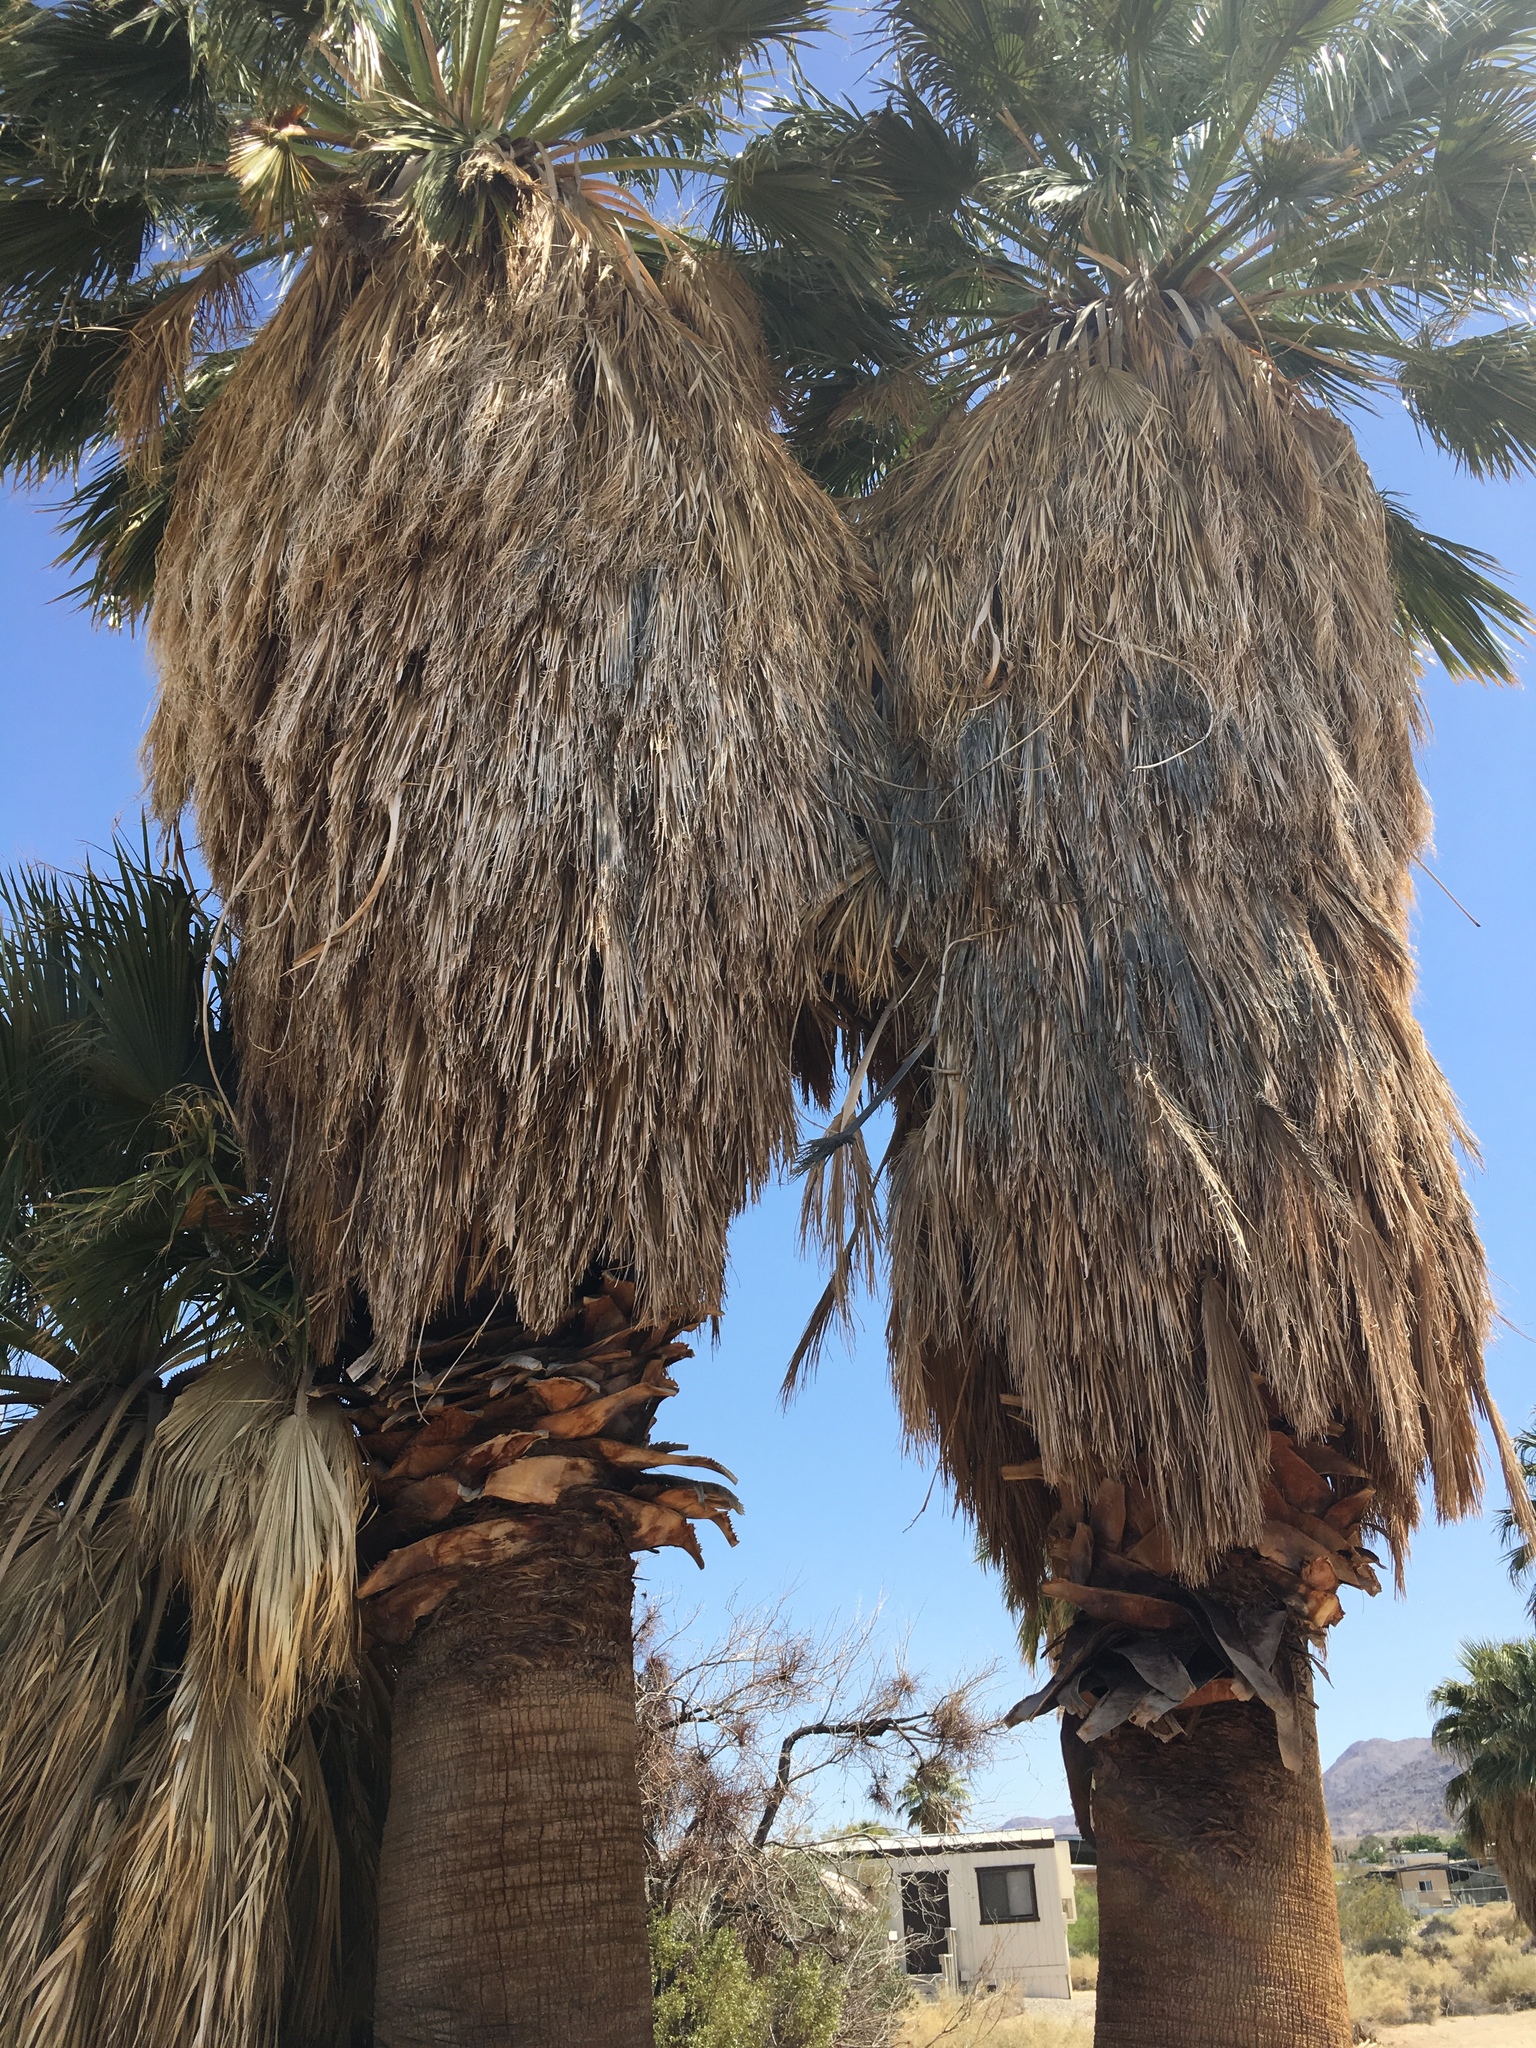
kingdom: Plantae
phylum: Tracheophyta
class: Liliopsida
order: Arecales
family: Arecaceae
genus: Washingtonia
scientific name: Washingtonia filifera
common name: California fan palm
